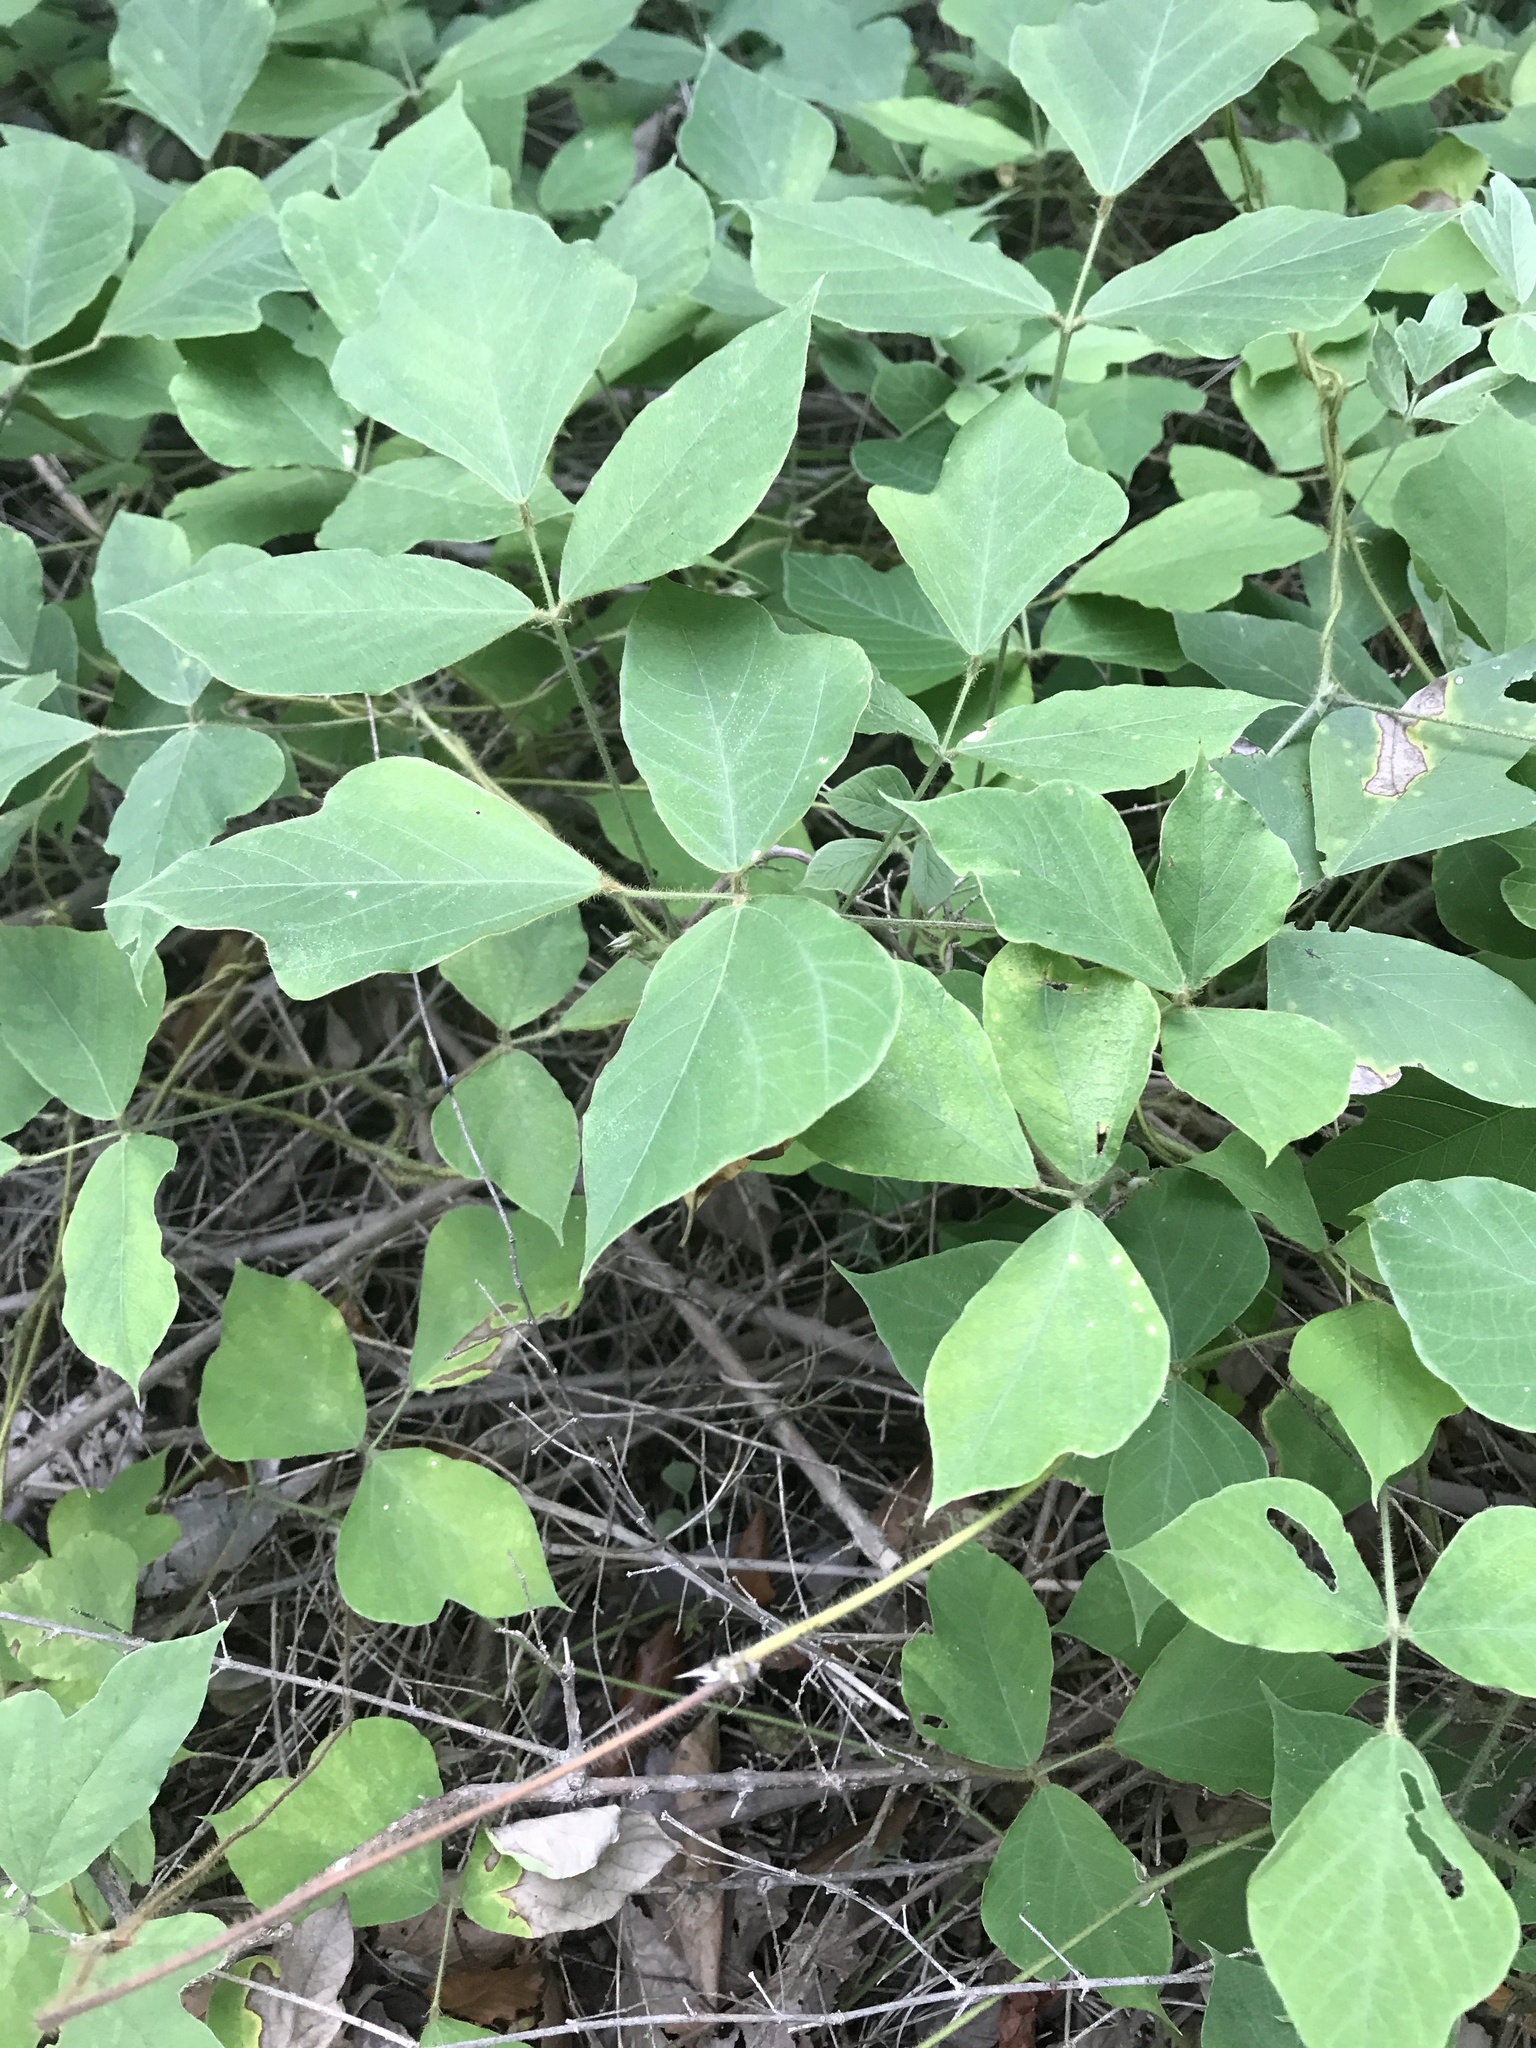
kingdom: Plantae
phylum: Tracheophyta
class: Magnoliopsida
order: Fabales
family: Fabaceae
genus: Pueraria
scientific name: Pueraria montana
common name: Kudzu
